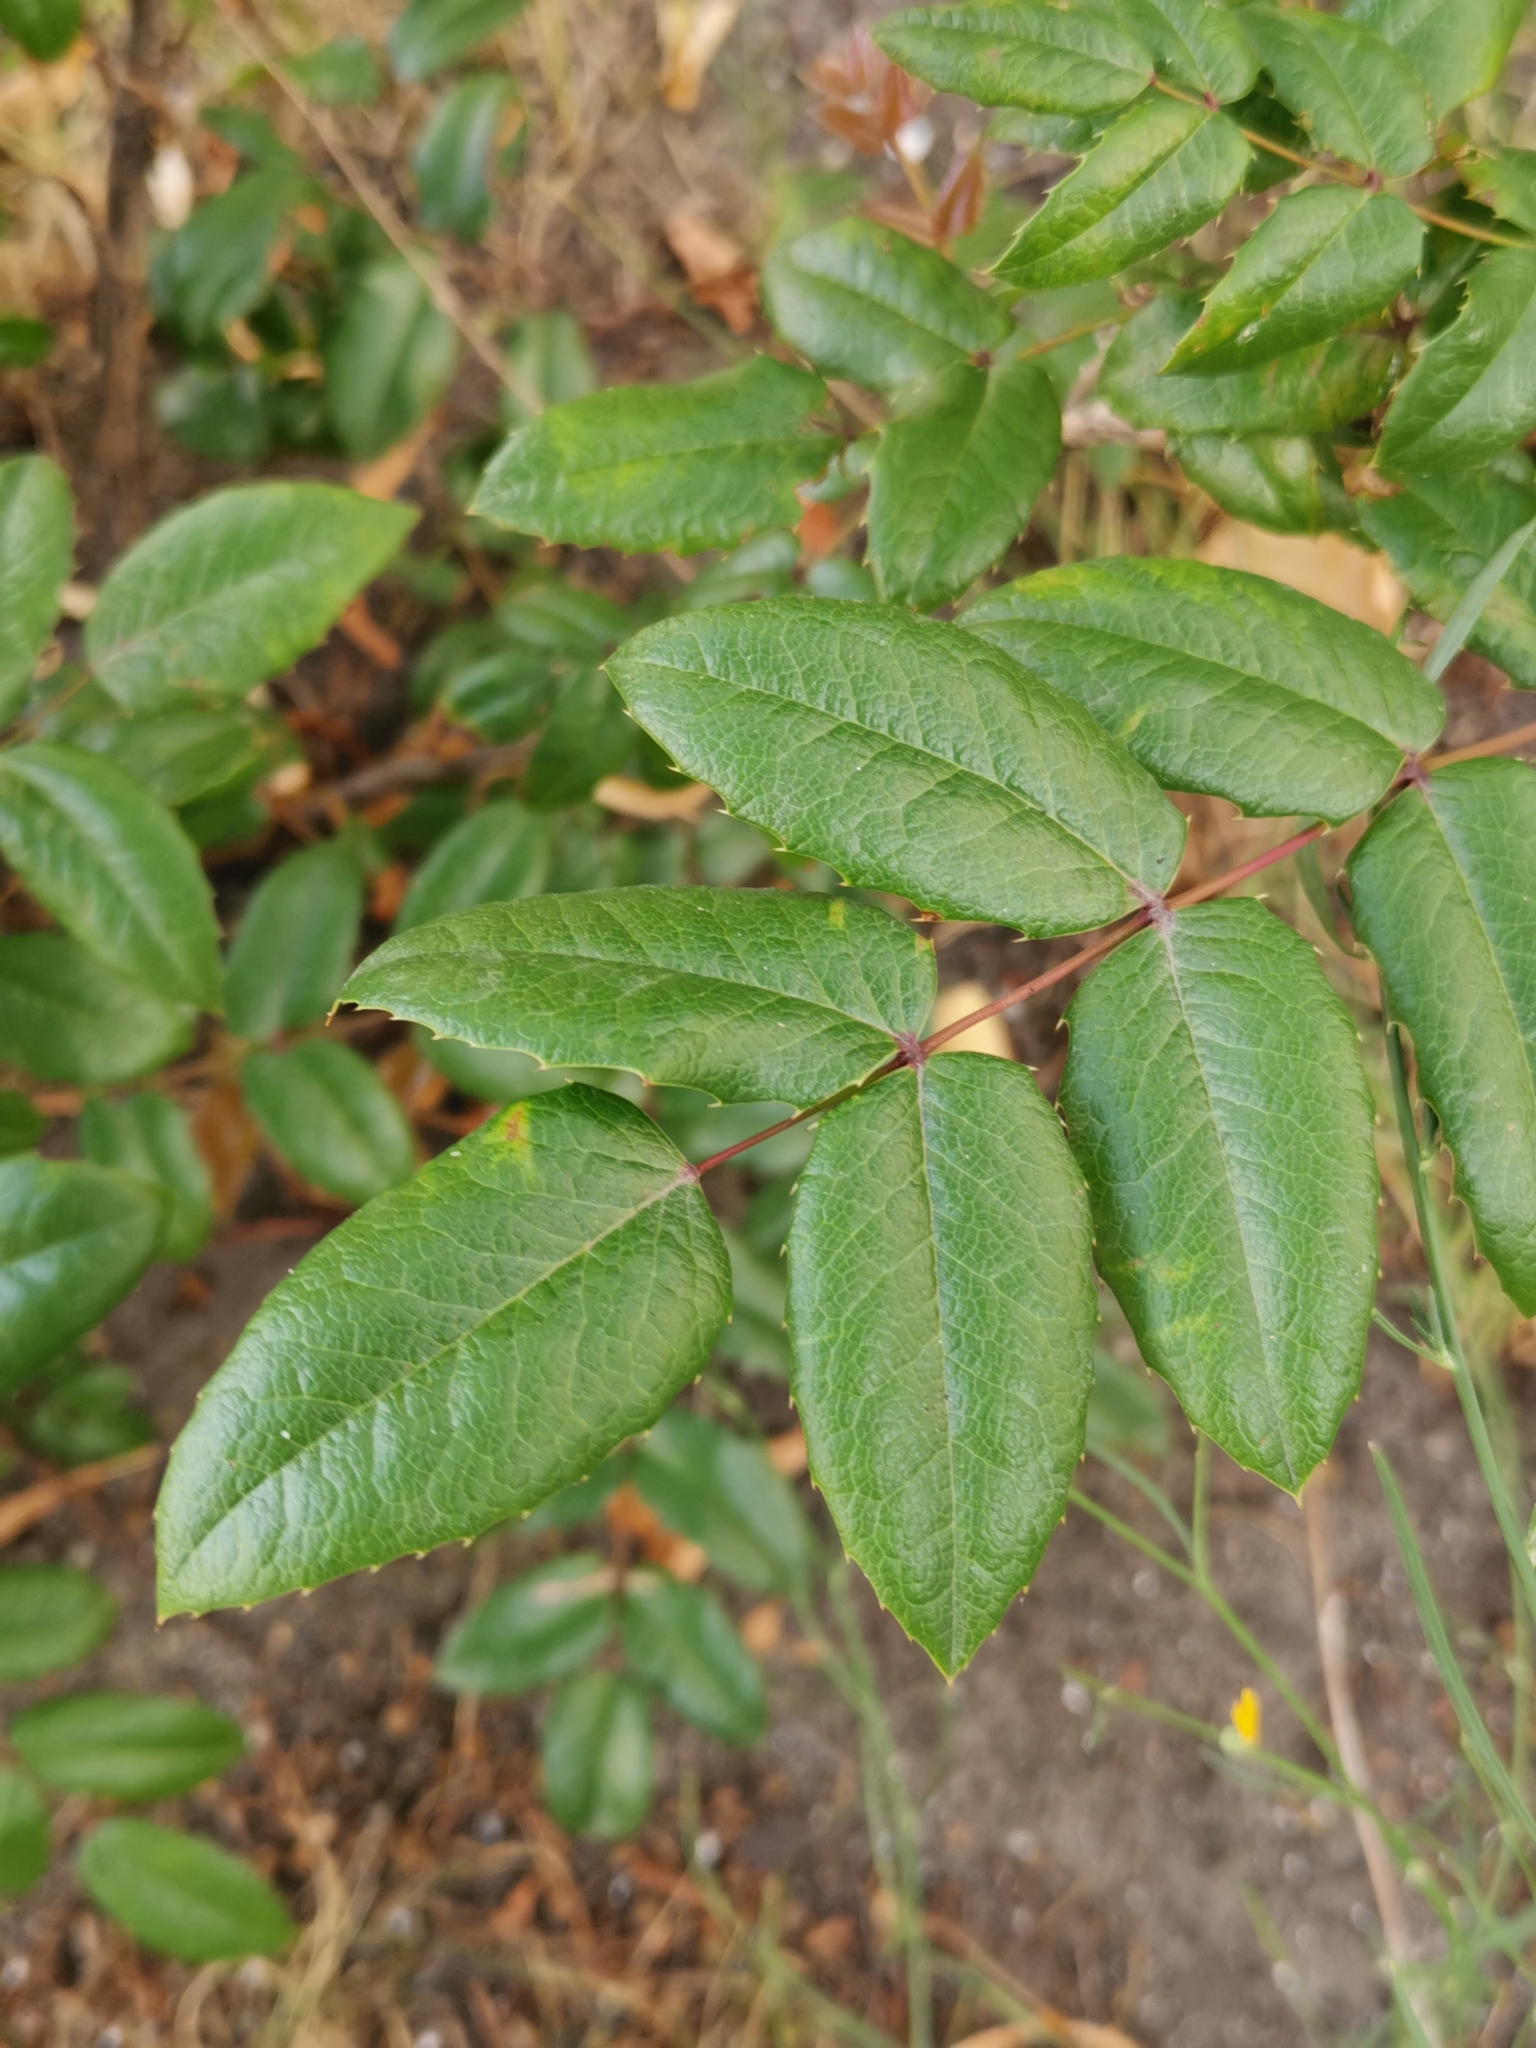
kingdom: Plantae
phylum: Tracheophyta
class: Magnoliopsida
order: Ranunculales
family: Berberidaceae
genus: Mahonia
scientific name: Mahonia aquifolium
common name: Oregon-grape
